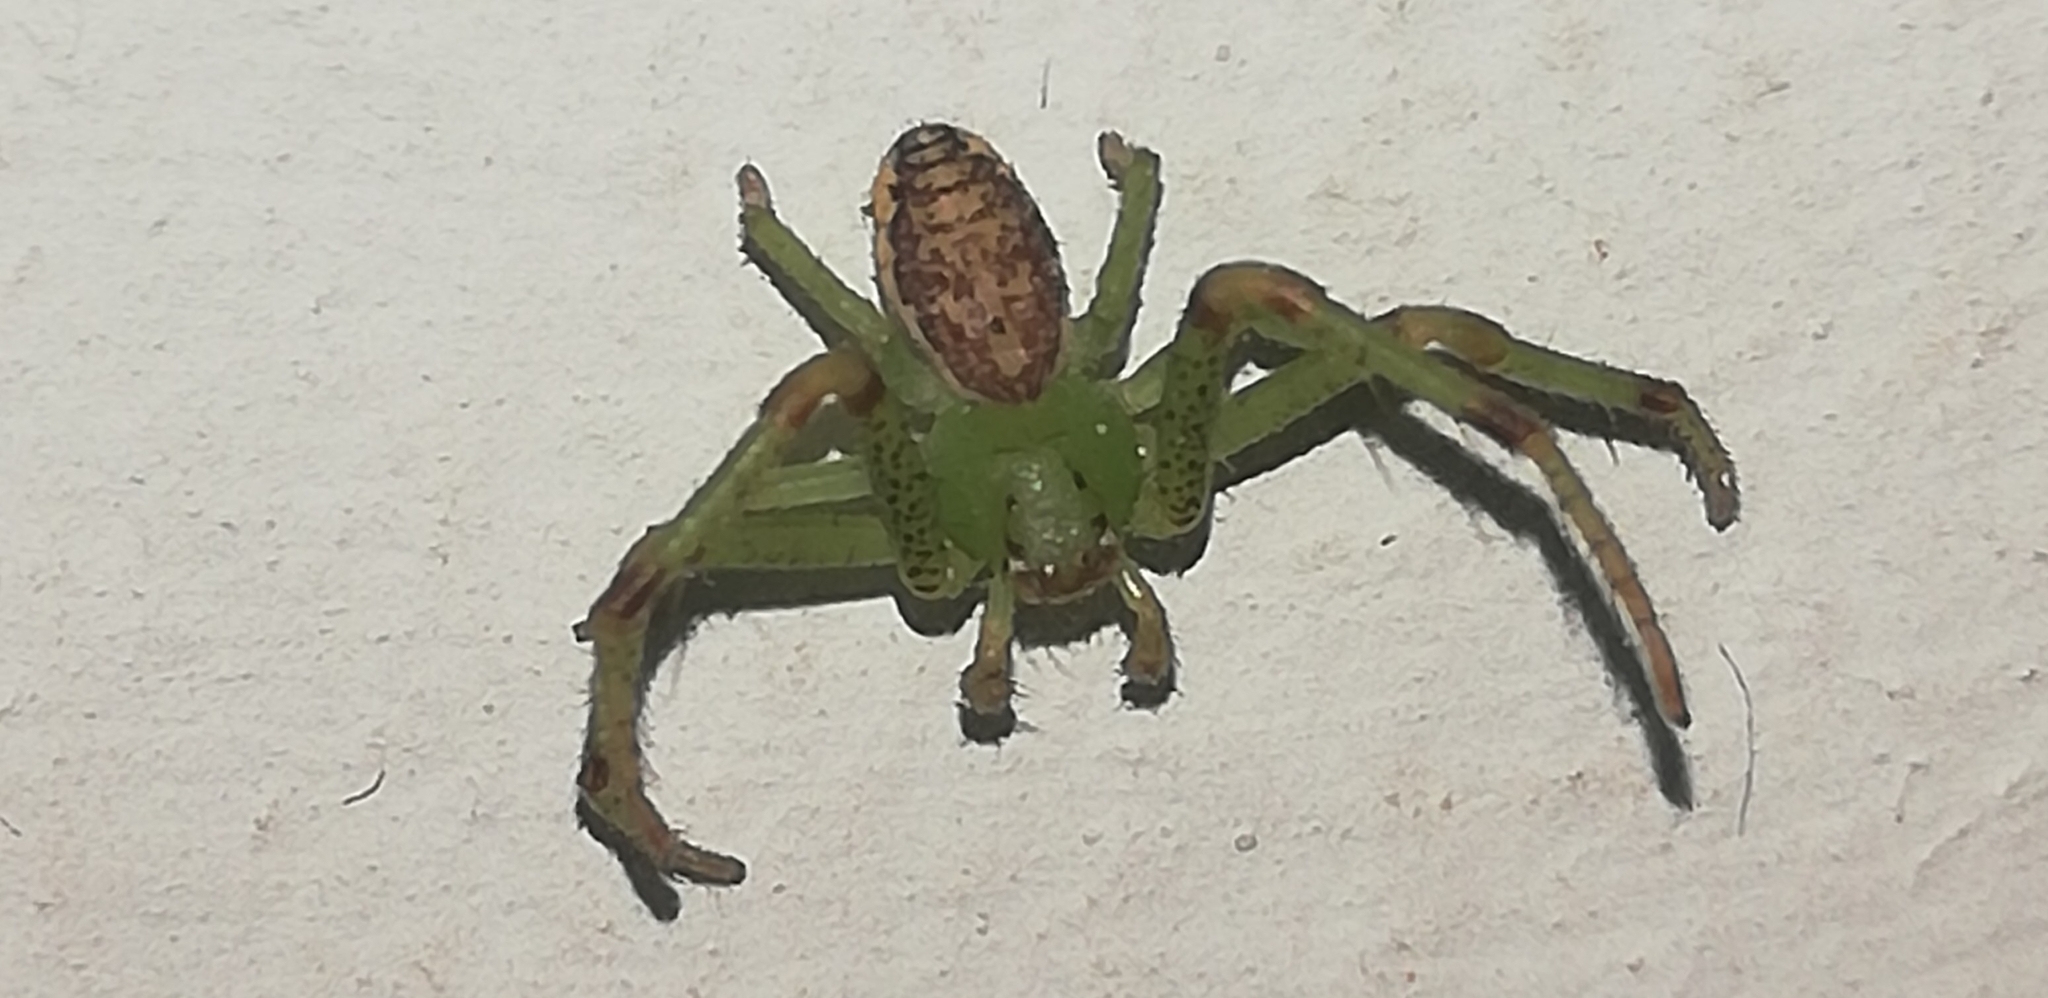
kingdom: Animalia
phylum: Arthropoda
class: Arachnida
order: Araneae
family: Thomisidae
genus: Diaea
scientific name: Diaea dorsata
